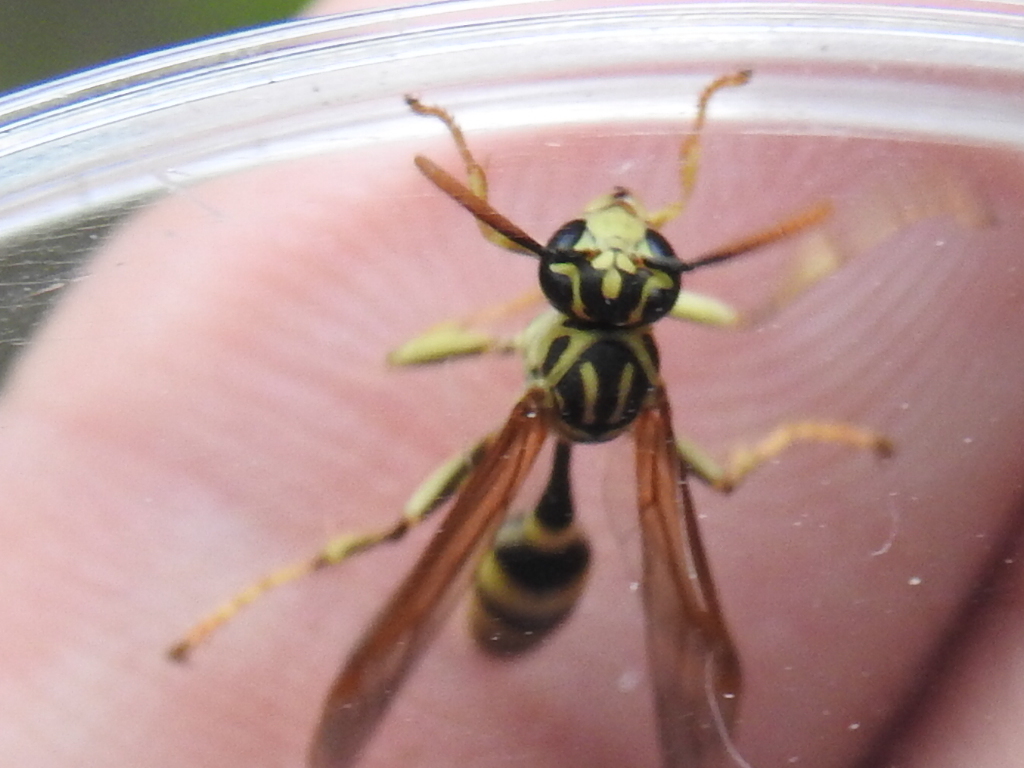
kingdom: Animalia
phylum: Arthropoda
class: Insecta
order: Hymenoptera
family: Vespidae
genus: Mischocyttarus
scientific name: Mischocyttarus basimacula
